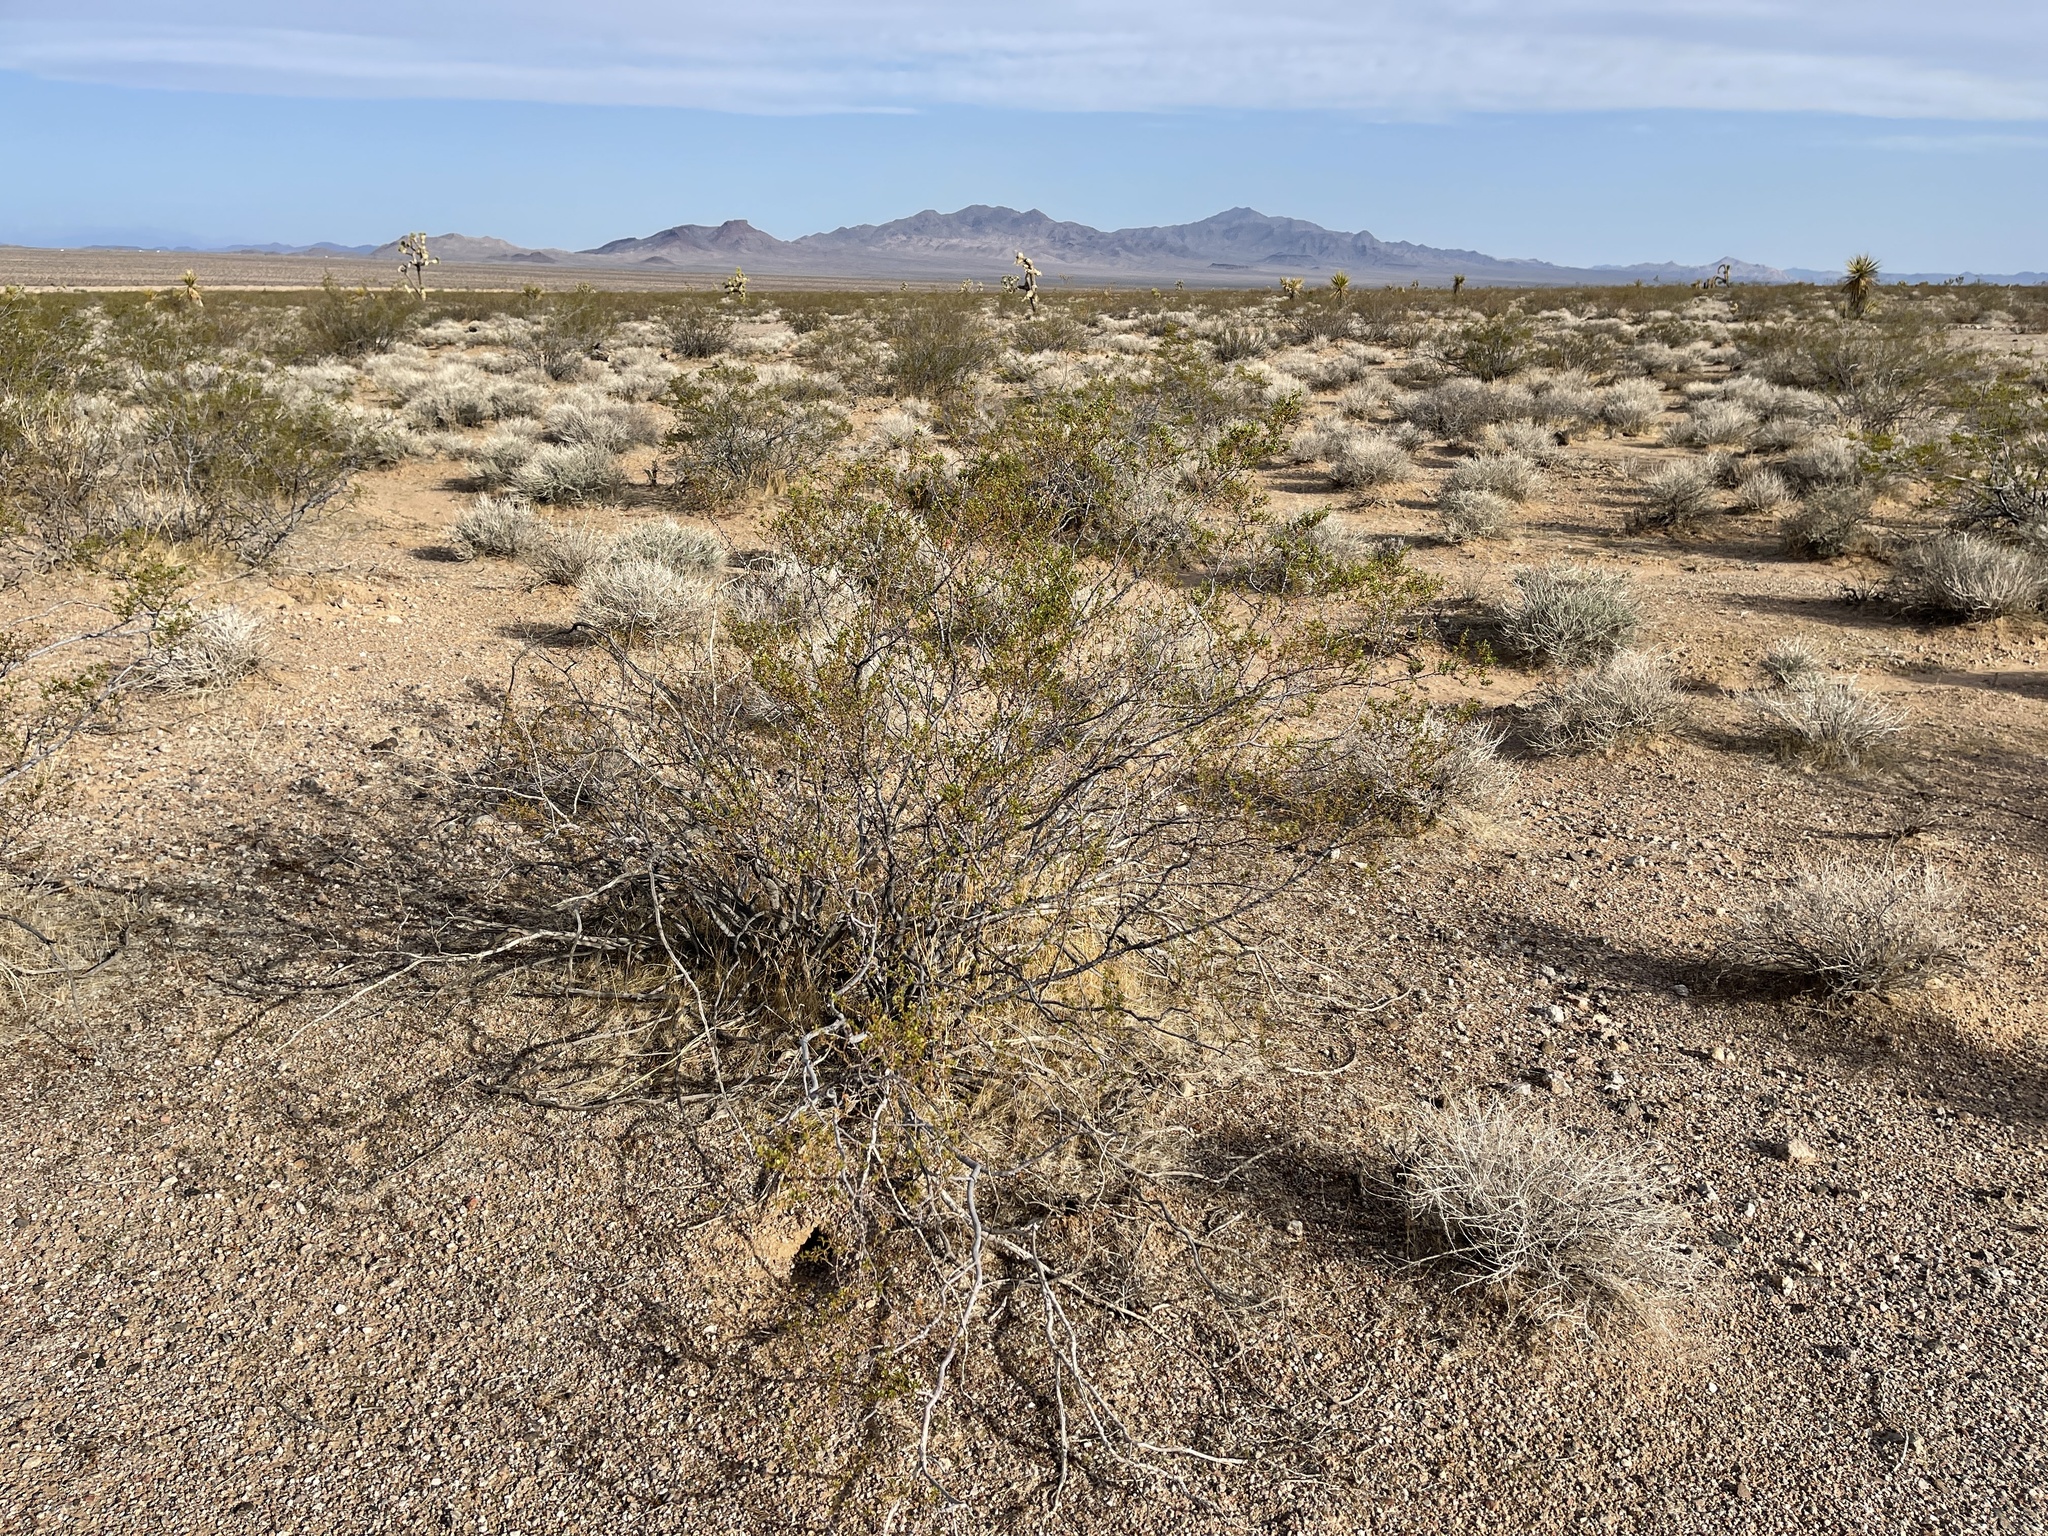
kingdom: Plantae
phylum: Tracheophyta
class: Magnoliopsida
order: Zygophyllales
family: Zygophyllaceae
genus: Larrea
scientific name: Larrea tridentata
